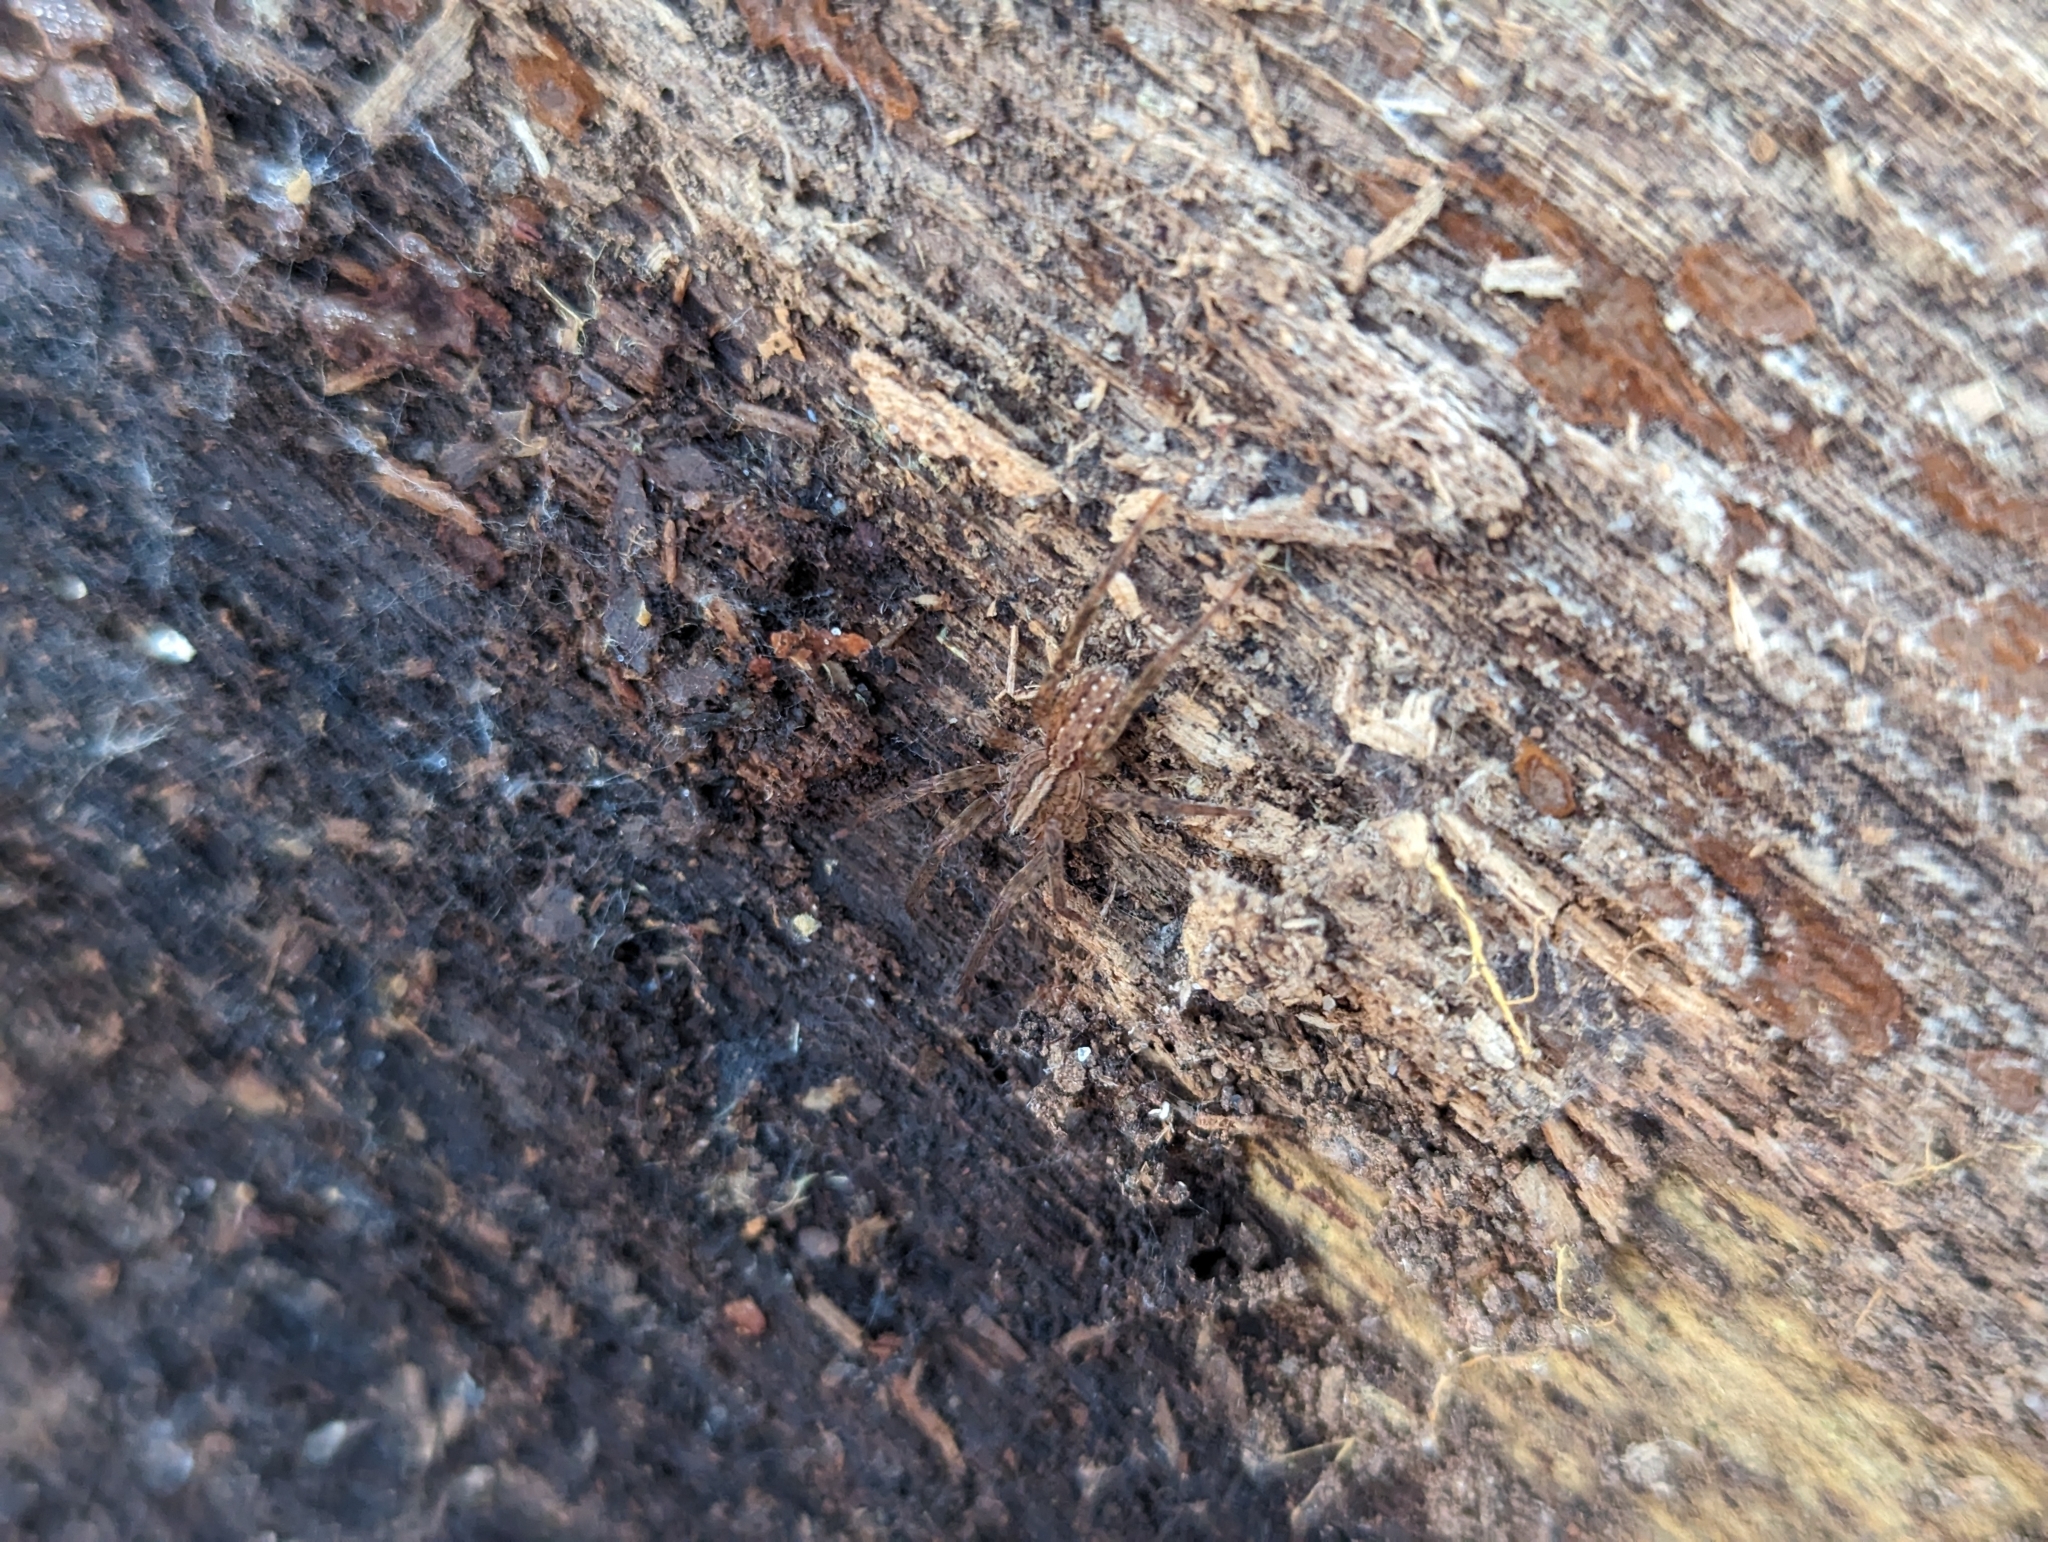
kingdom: Animalia
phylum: Arthropoda
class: Arachnida
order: Araneae
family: Ctenidae
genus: Anahita
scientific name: Anahita punctulata
